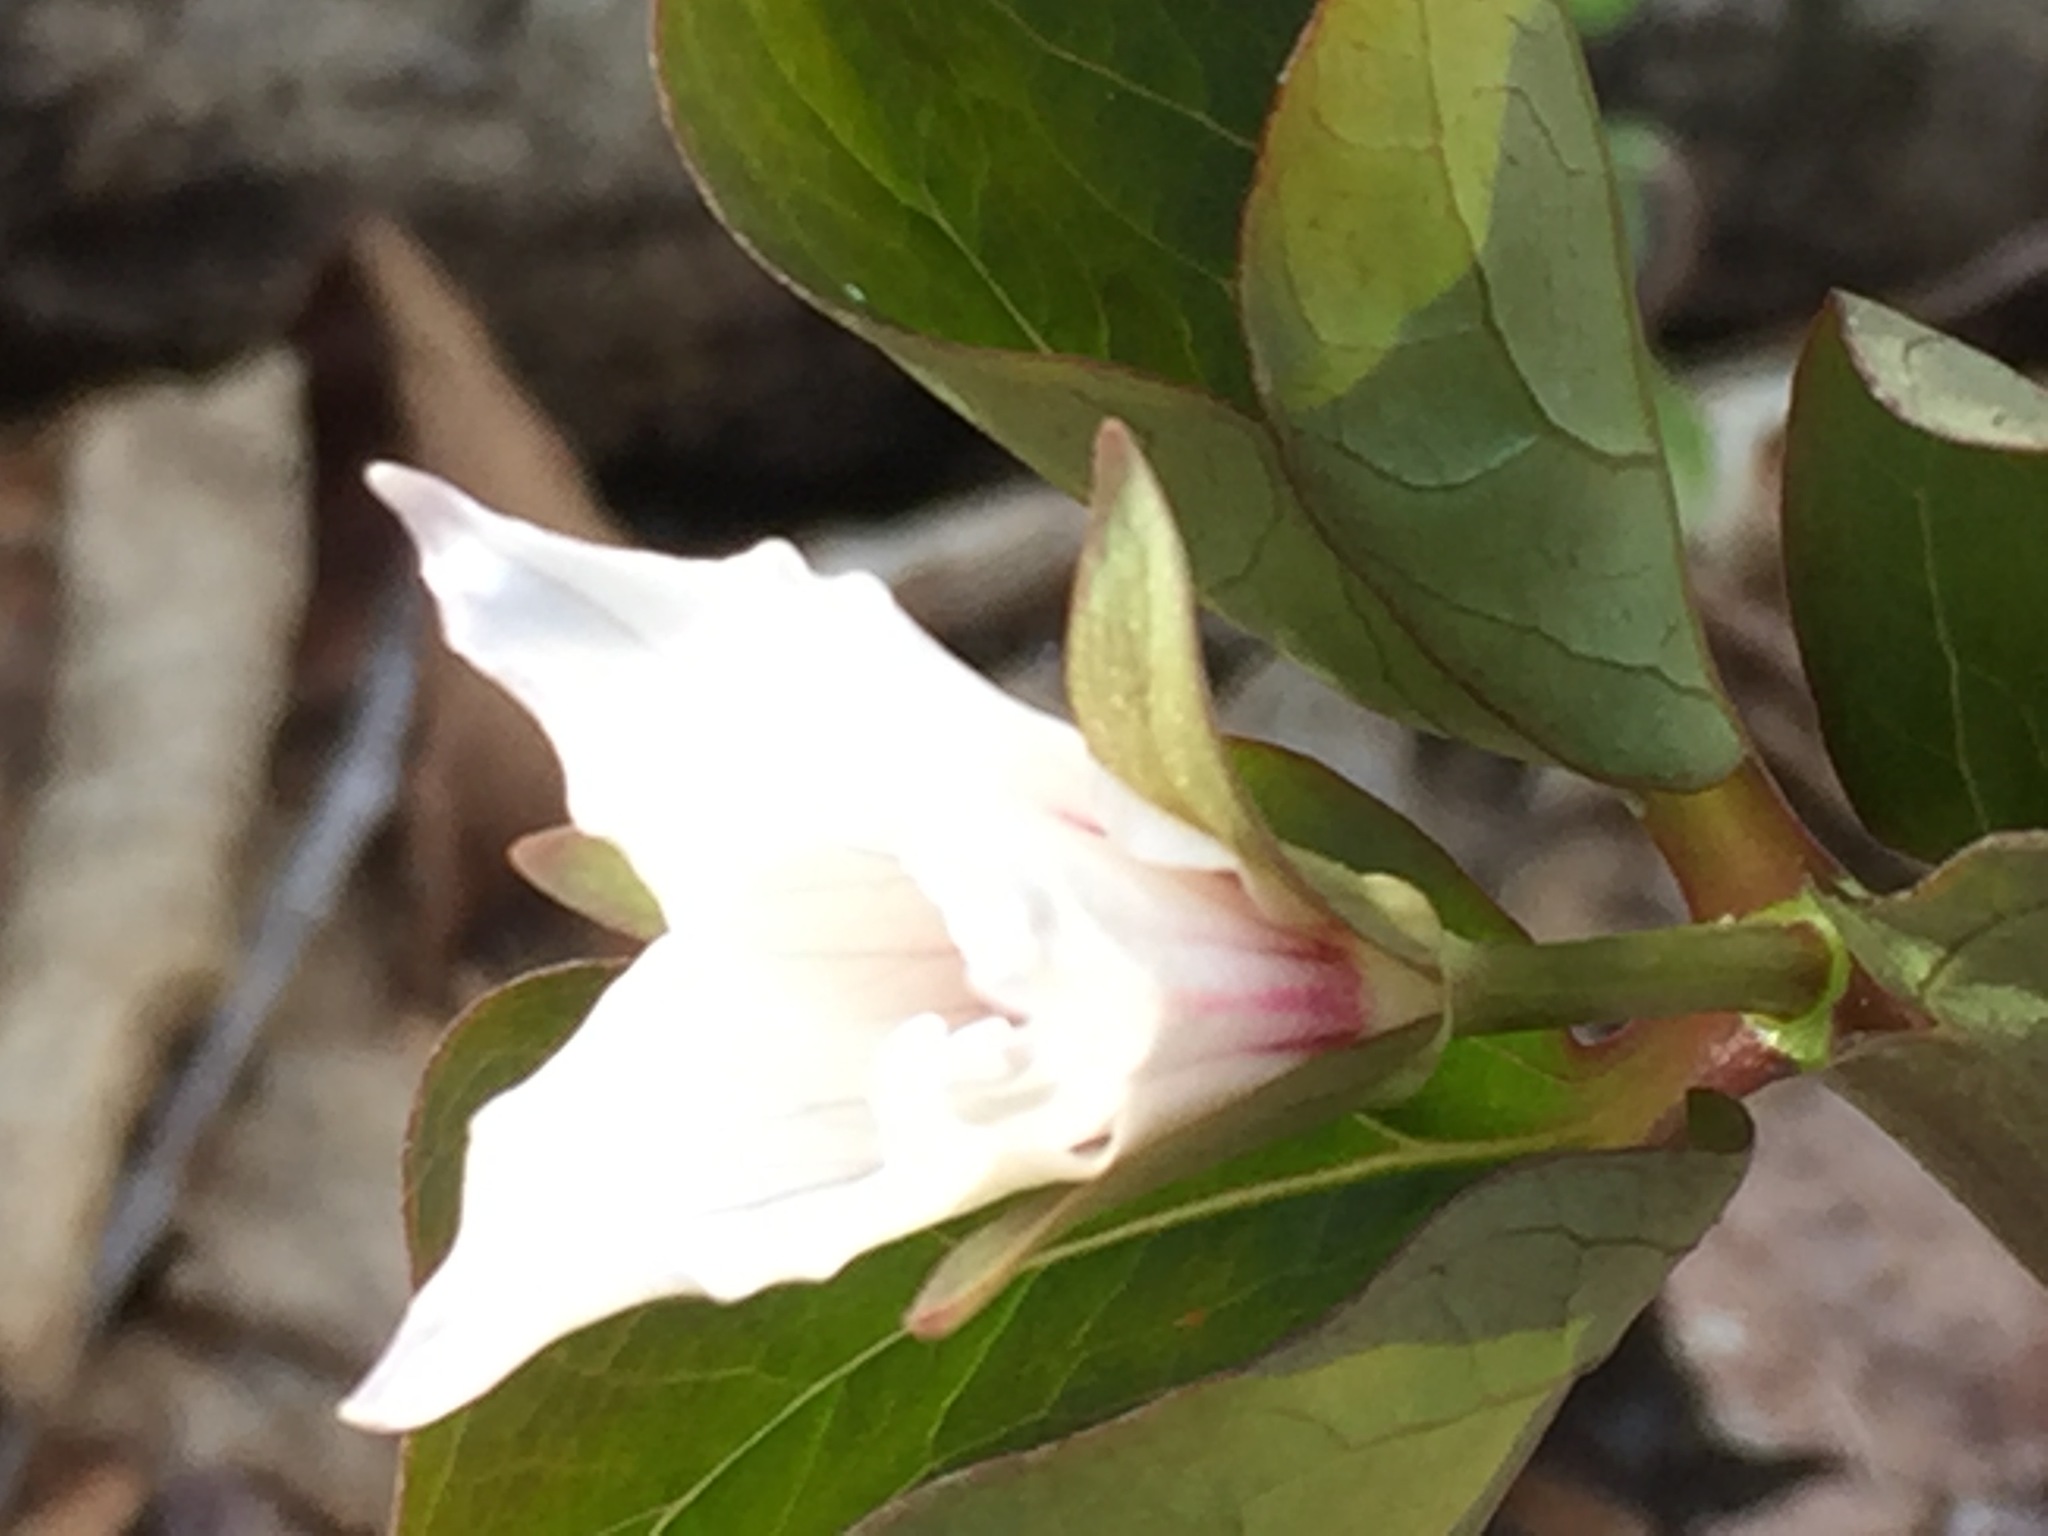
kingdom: Plantae
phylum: Tracheophyta
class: Liliopsida
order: Liliales
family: Melanthiaceae
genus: Trillium
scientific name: Trillium undulatum
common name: Paint trillium
